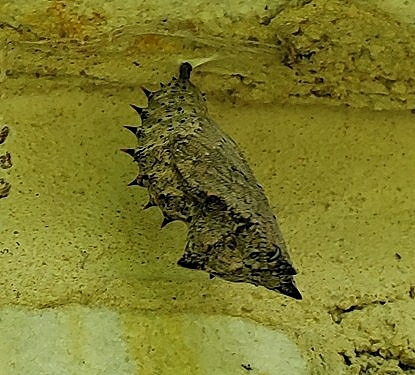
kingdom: Animalia
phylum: Arthropoda
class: Insecta
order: Lepidoptera
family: Nymphalidae
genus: Nymphalis
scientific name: Nymphalis antiopa
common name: Camberwell beauty
